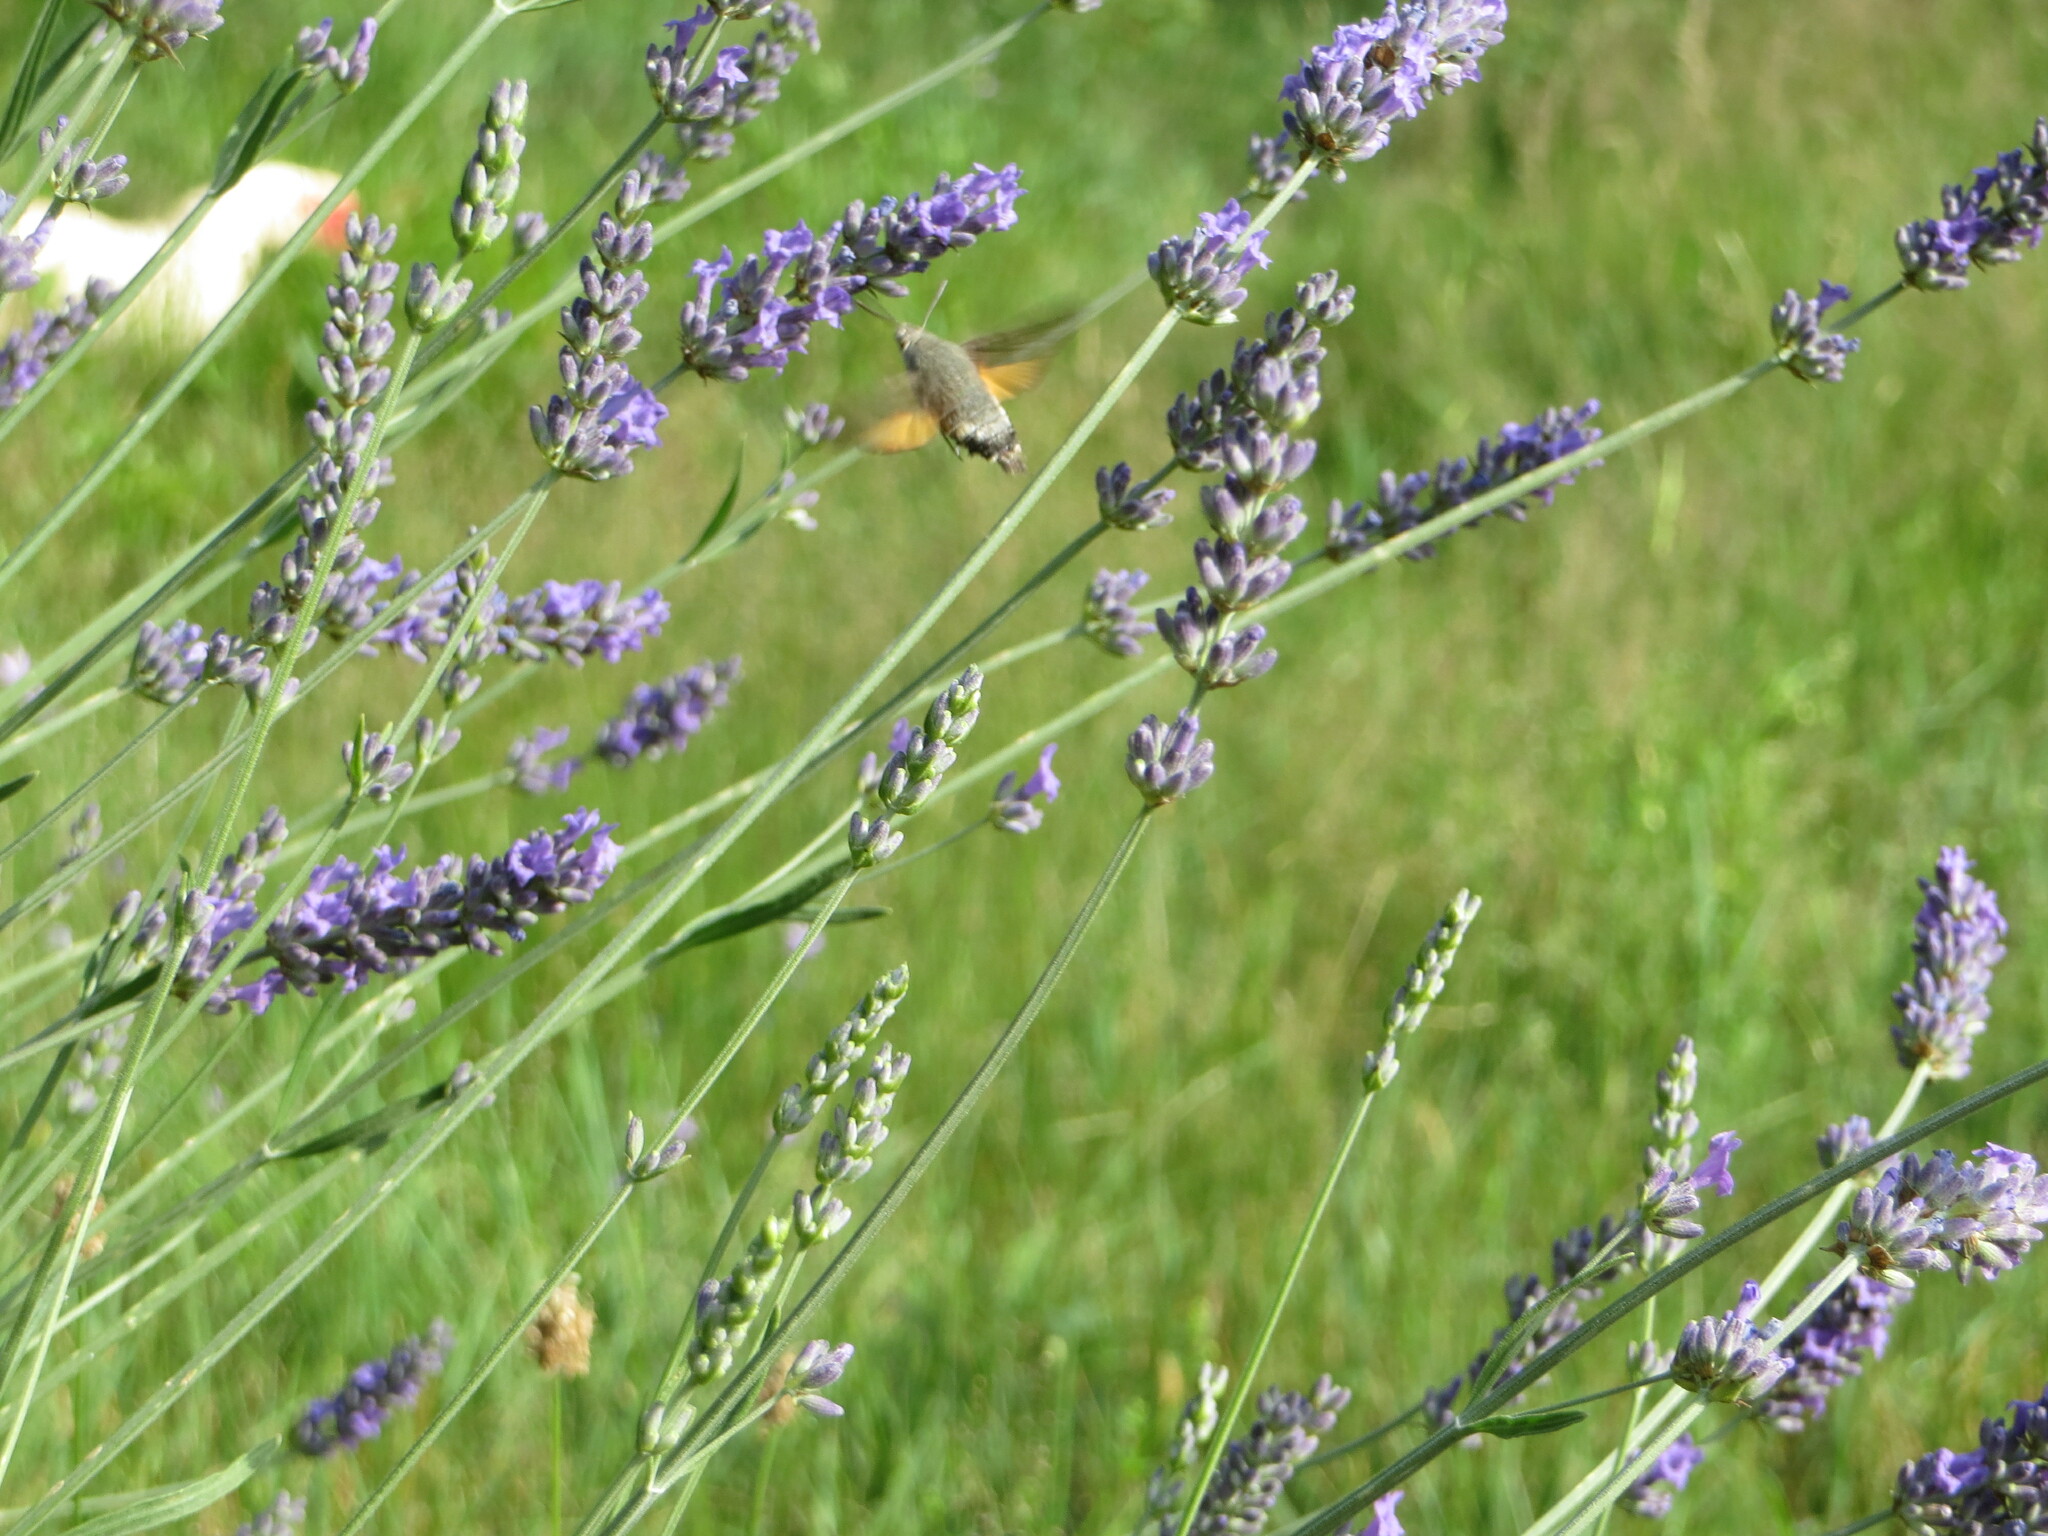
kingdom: Animalia
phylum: Arthropoda
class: Insecta
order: Lepidoptera
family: Sphingidae
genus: Macroglossum
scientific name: Macroglossum stellatarum
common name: Humming-bird hawk-moth
